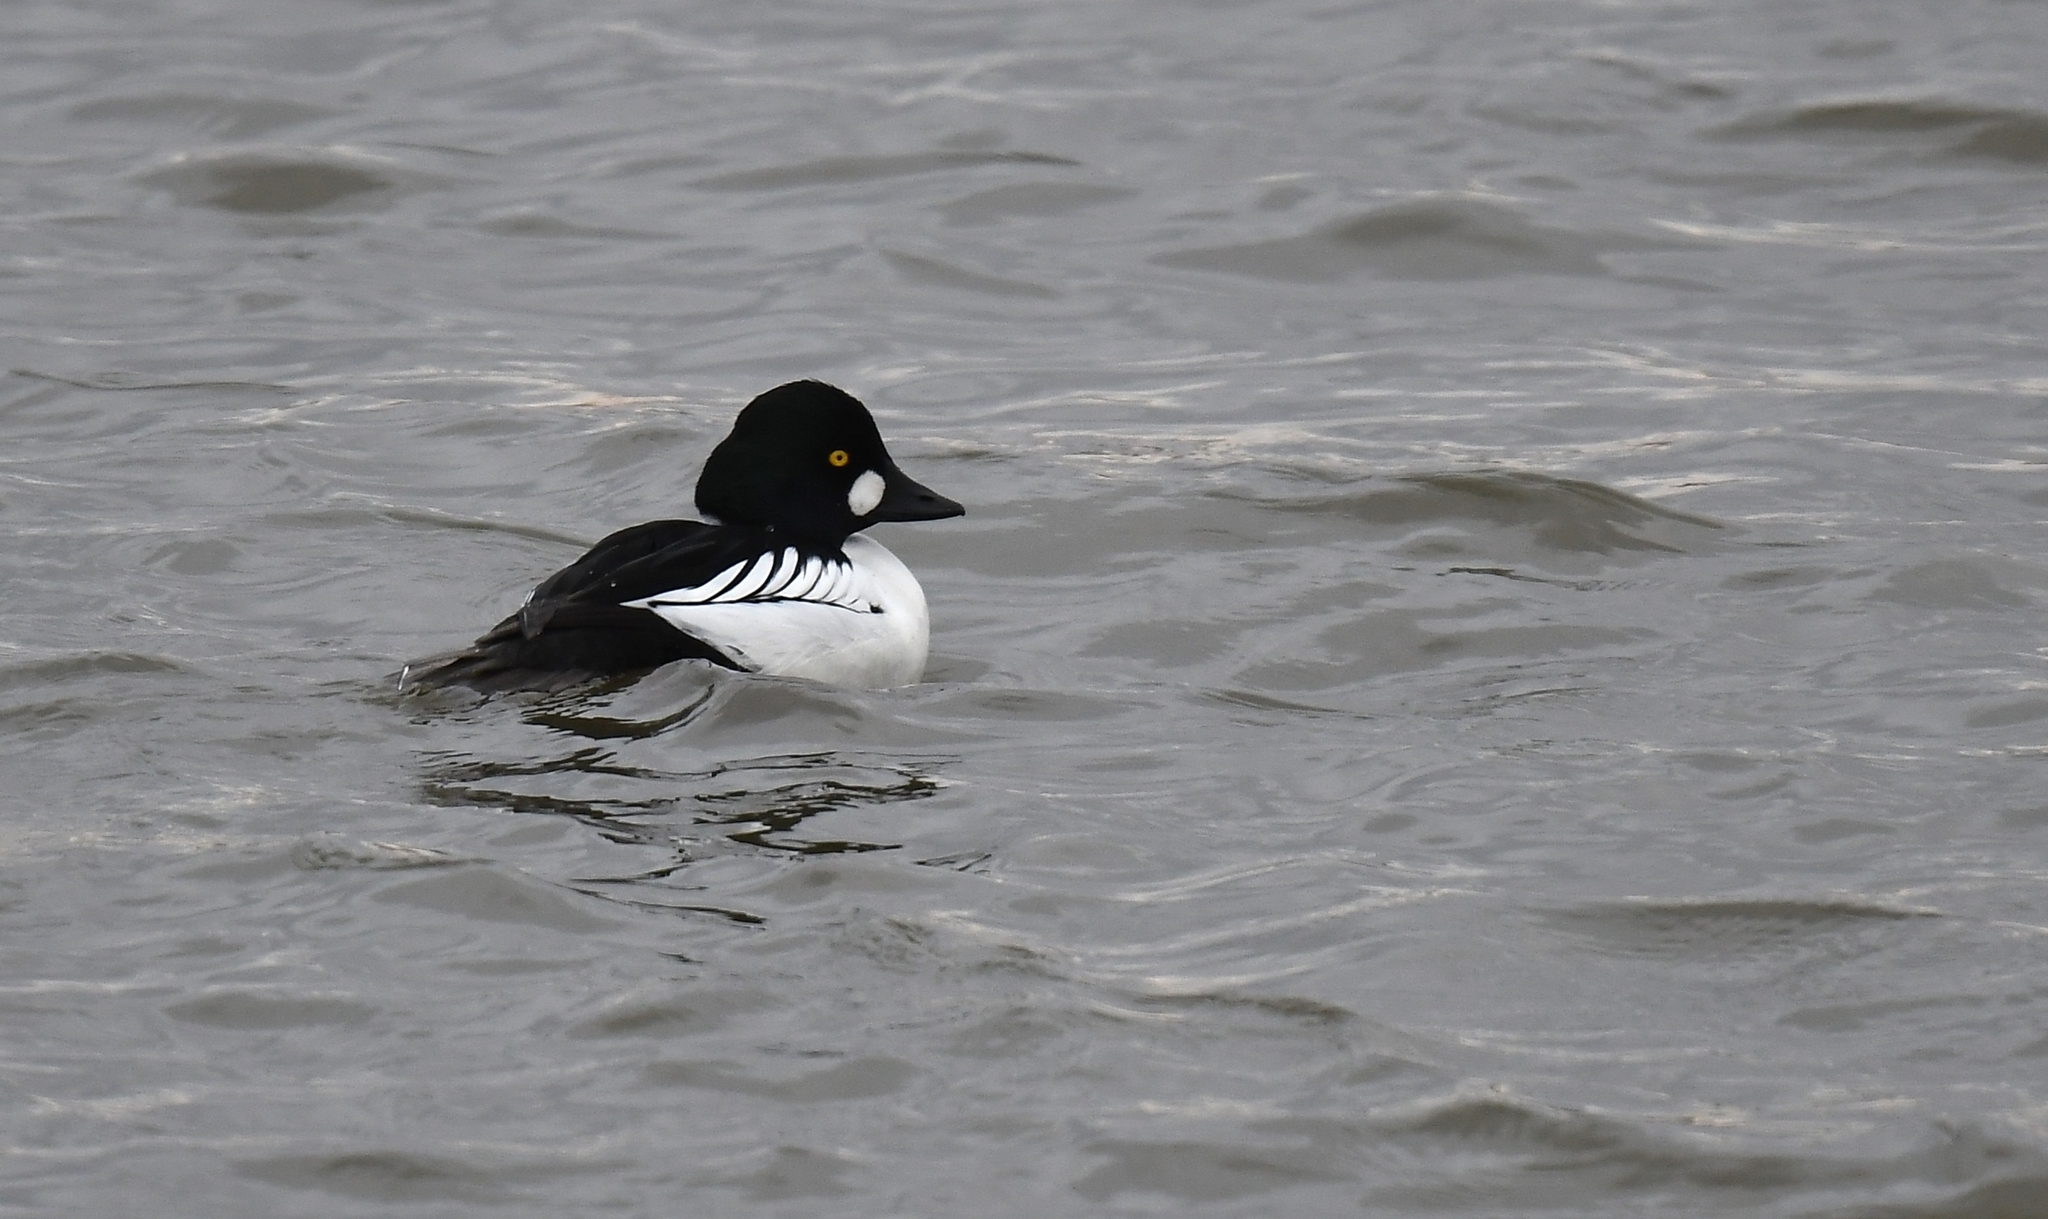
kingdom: Animalia
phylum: Chordata
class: Aves
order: Anseriformes
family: Anatidae
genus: Bucephala
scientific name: Bucephala clangula
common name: Common goldeneye
